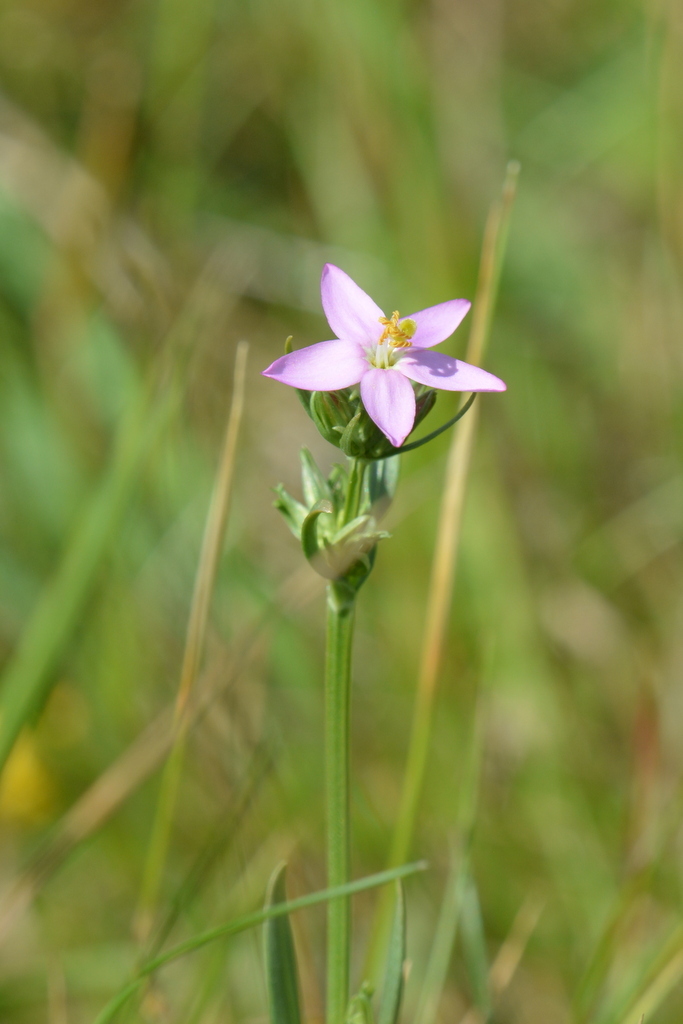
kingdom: Plantae
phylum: Tracheophyta
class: Magnoliopsida
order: Gentianales
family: Gentianaceae
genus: Centaurium
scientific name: Centaurium erythraea
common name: Common centaury
